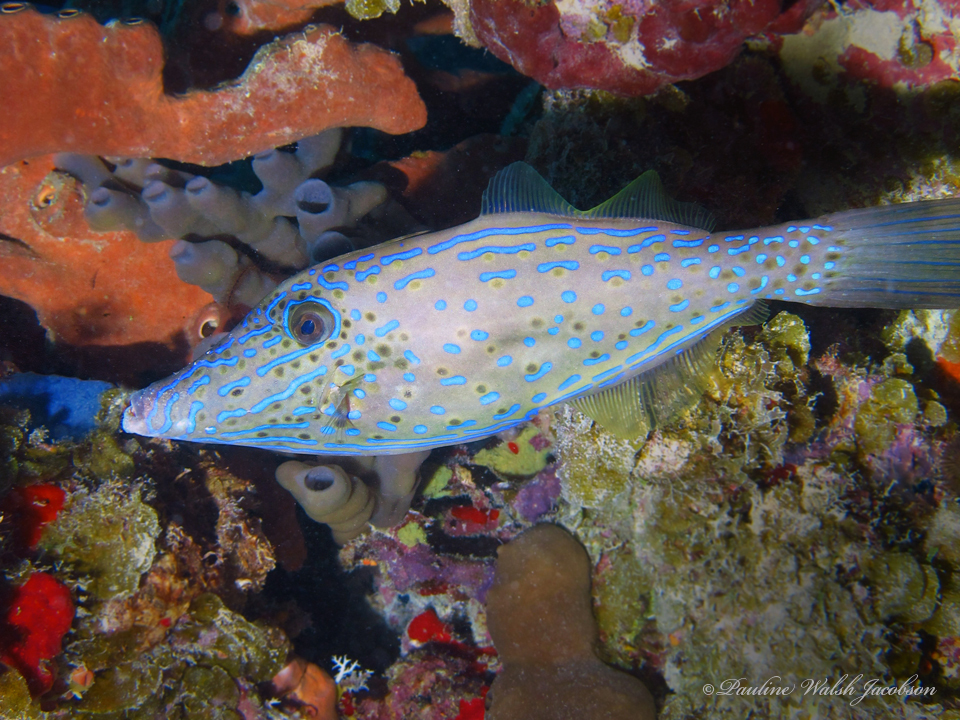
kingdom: Animalia
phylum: Chordata
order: Tetraodontiformes
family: Monacanthidae
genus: Aluterus
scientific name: Aluterus scriptus
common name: Scribbled leatherjacket filefish
